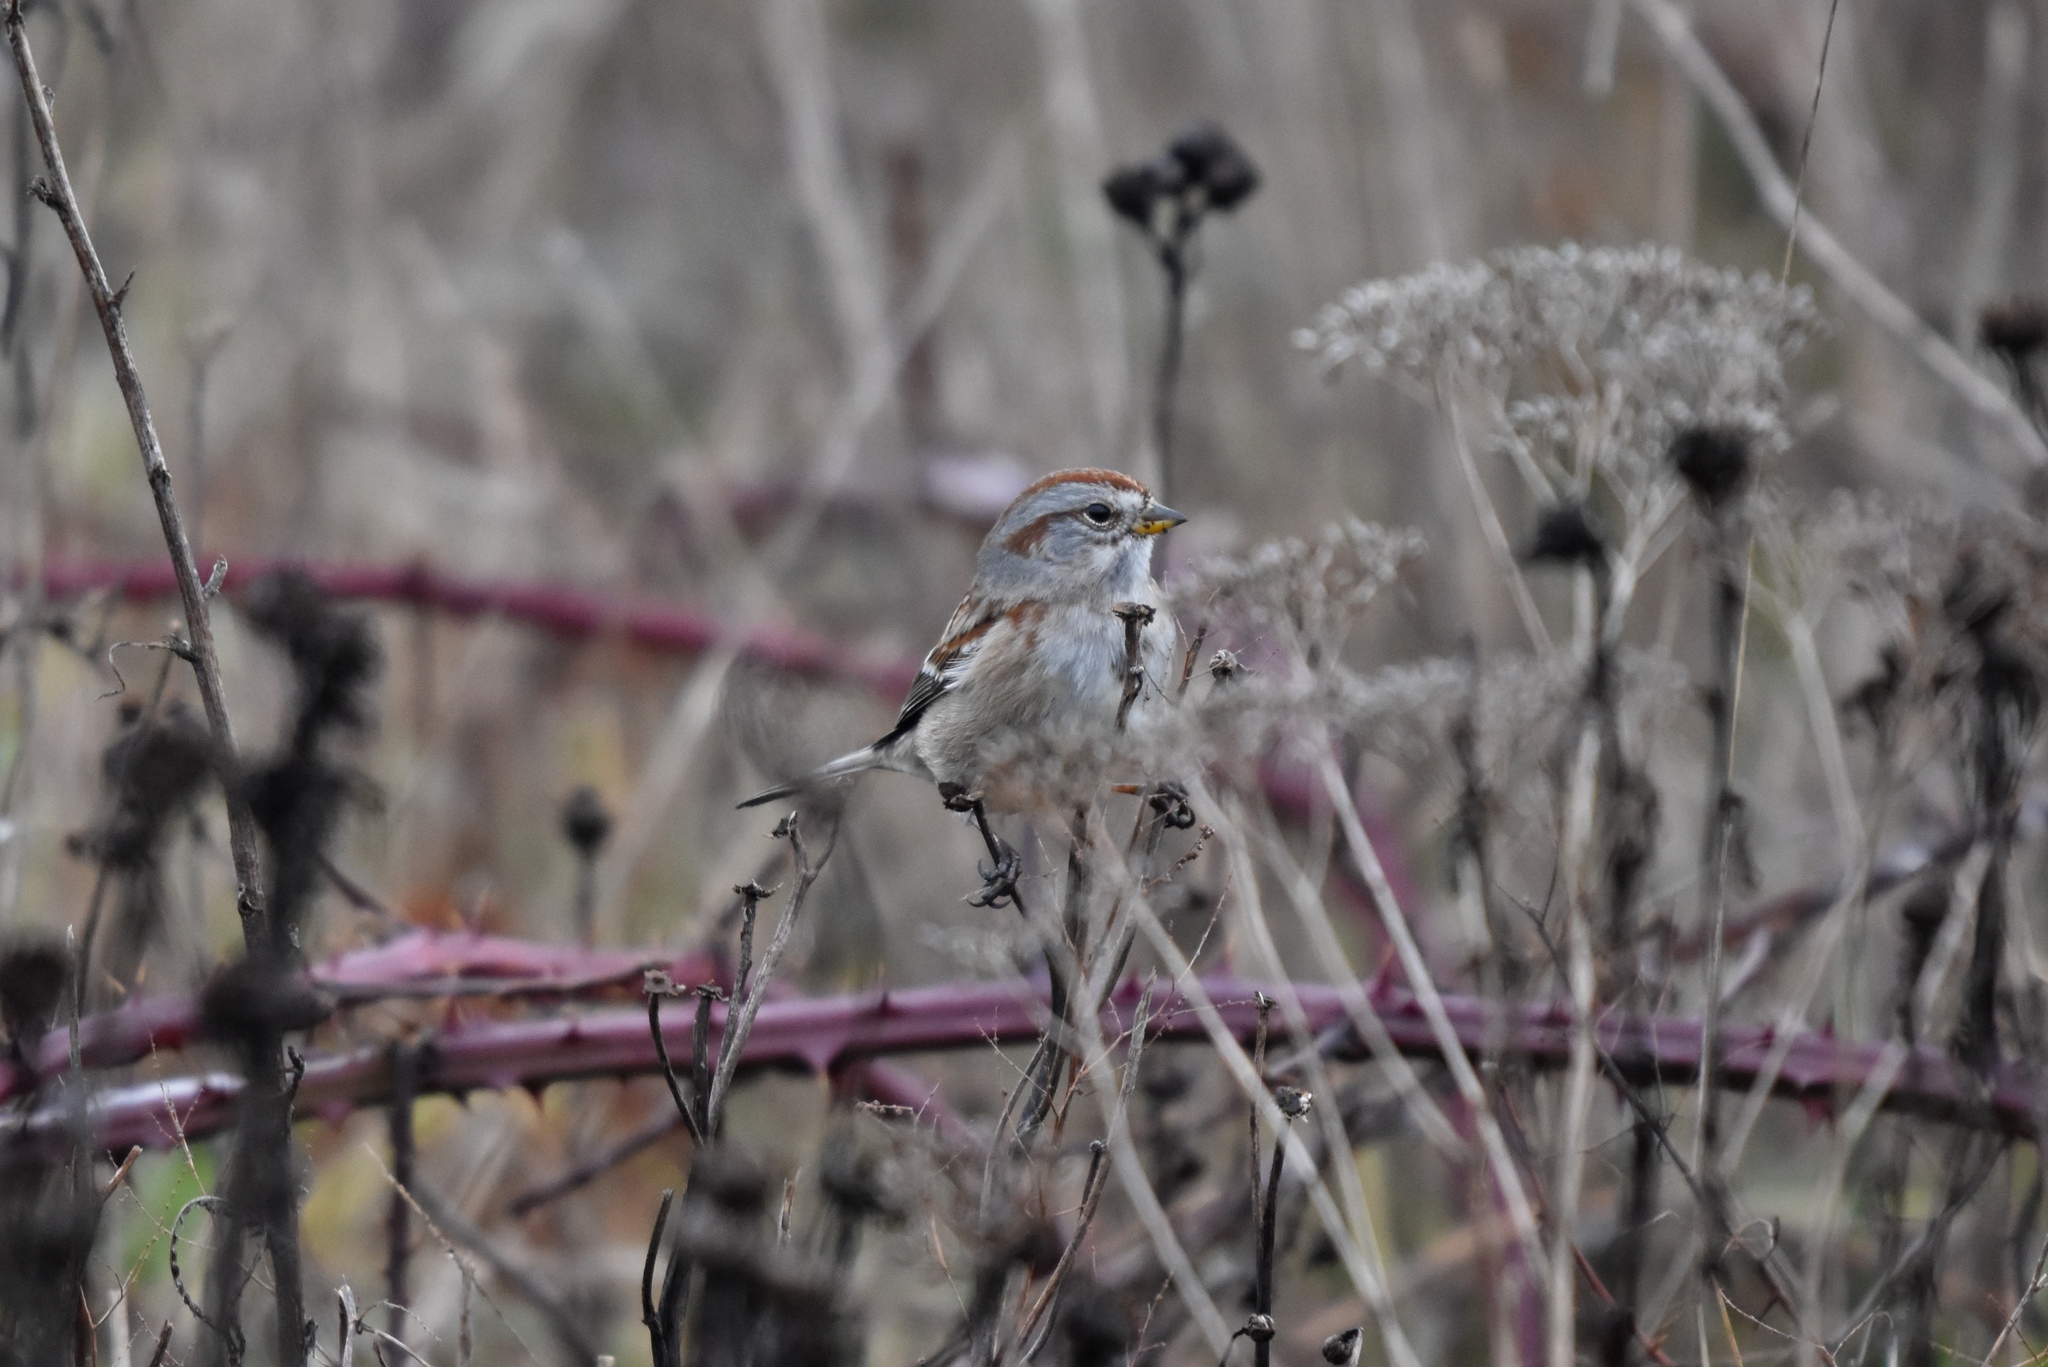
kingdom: Animalia
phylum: Chordata
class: Aves
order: Passeriformes
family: Passerellidae
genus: Spizelloides
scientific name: Spizelloides arborea
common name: American tree sparrow
